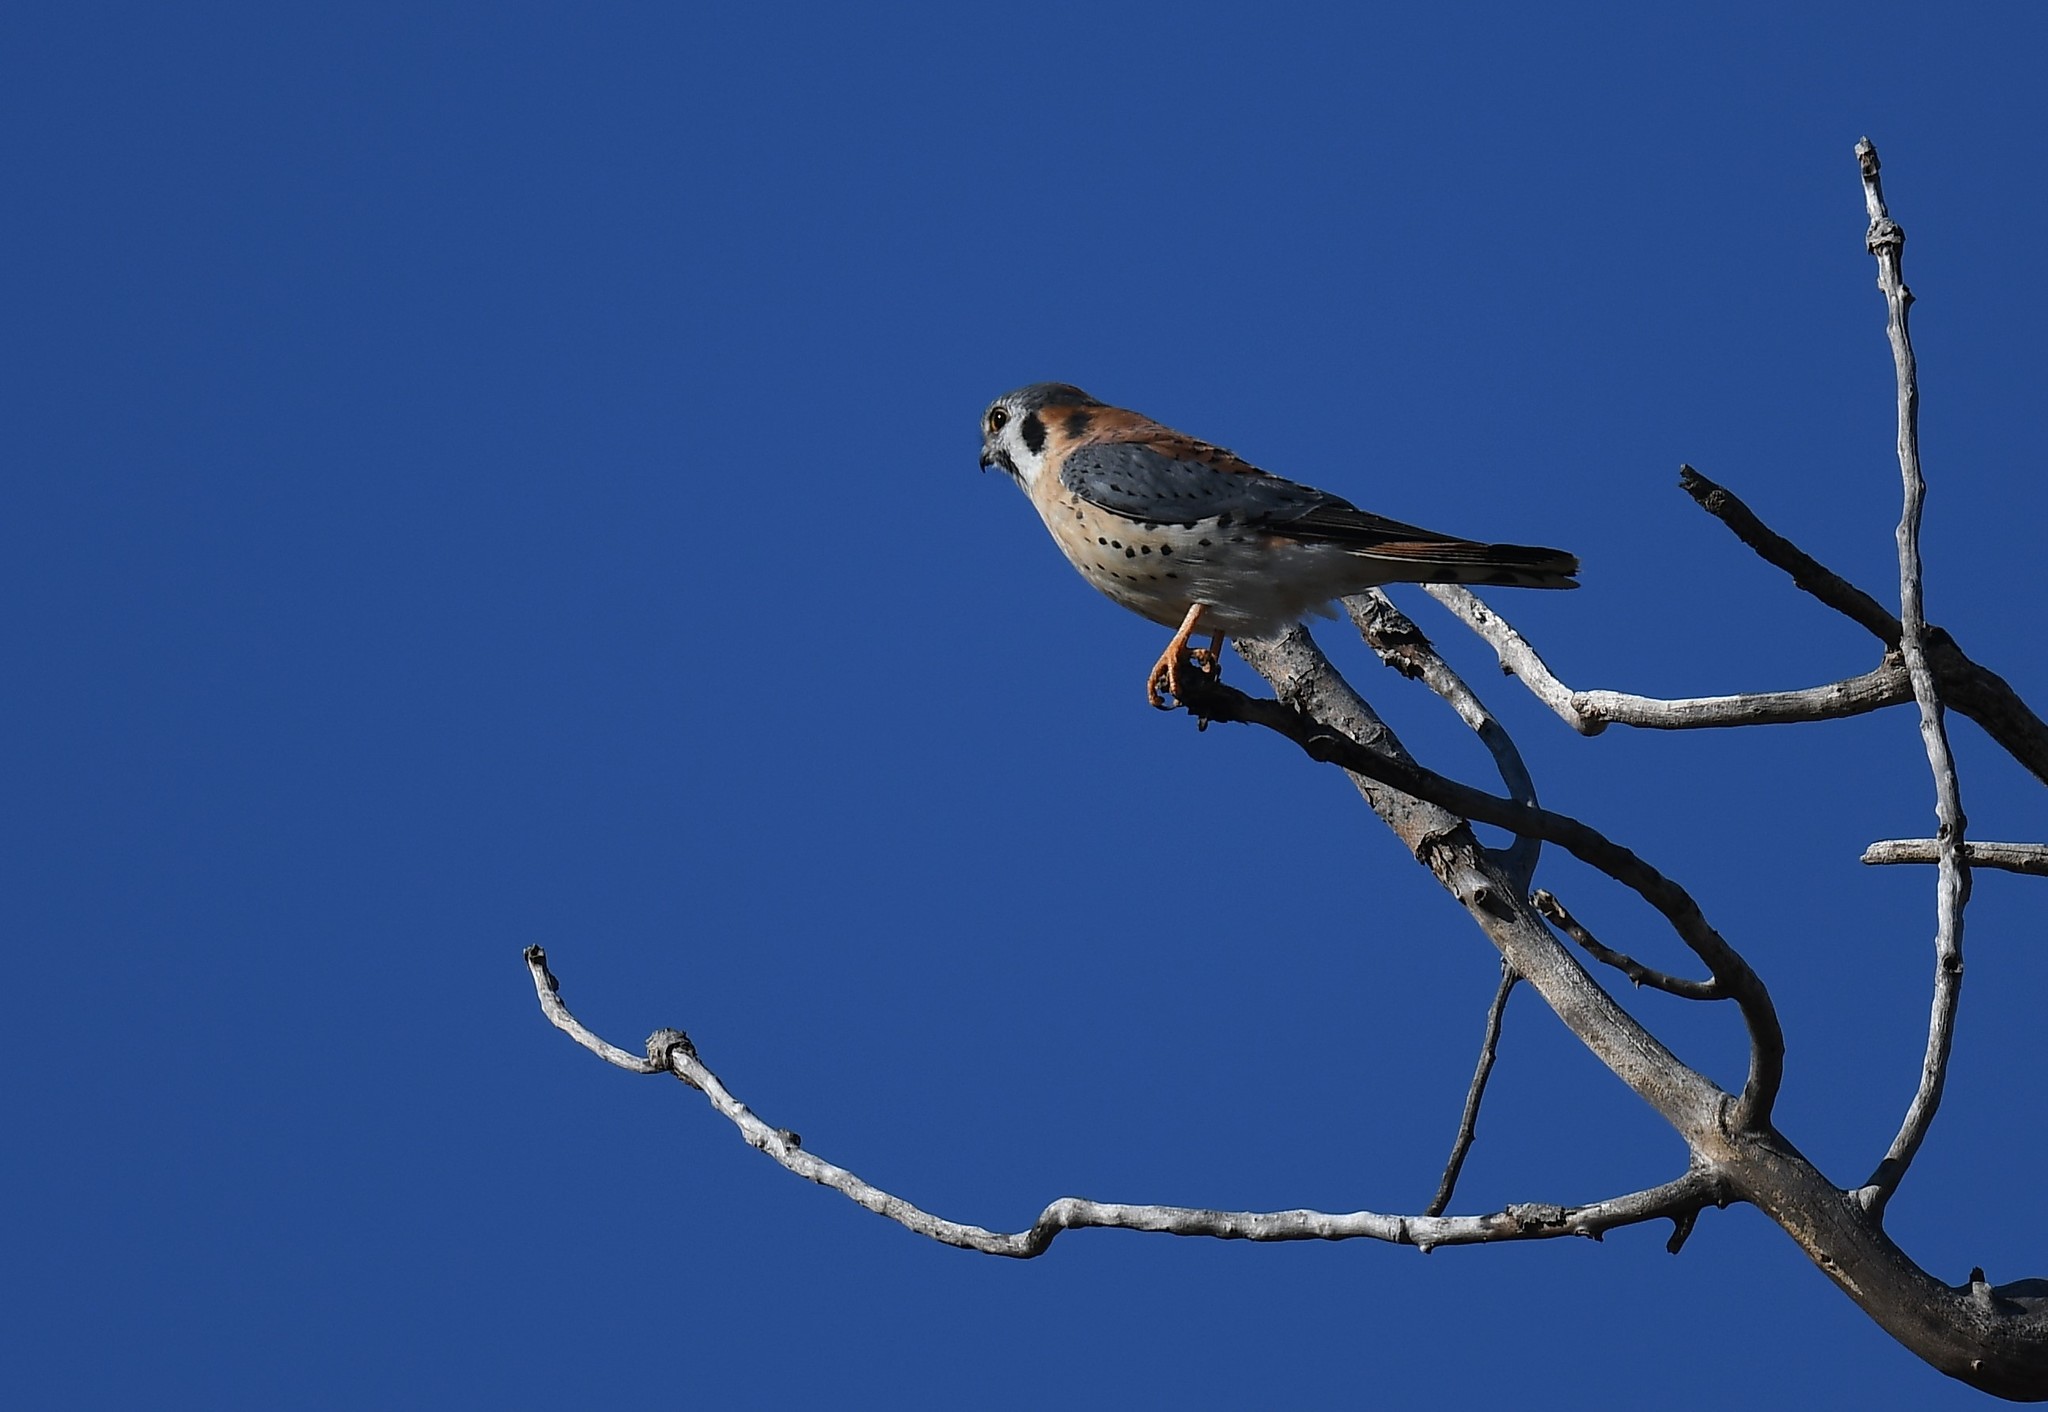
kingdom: Animalia
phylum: Chordata
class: Aves
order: Falconiformes
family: Falconidae
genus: Falco
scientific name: Falco sparverius
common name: American kestrel
